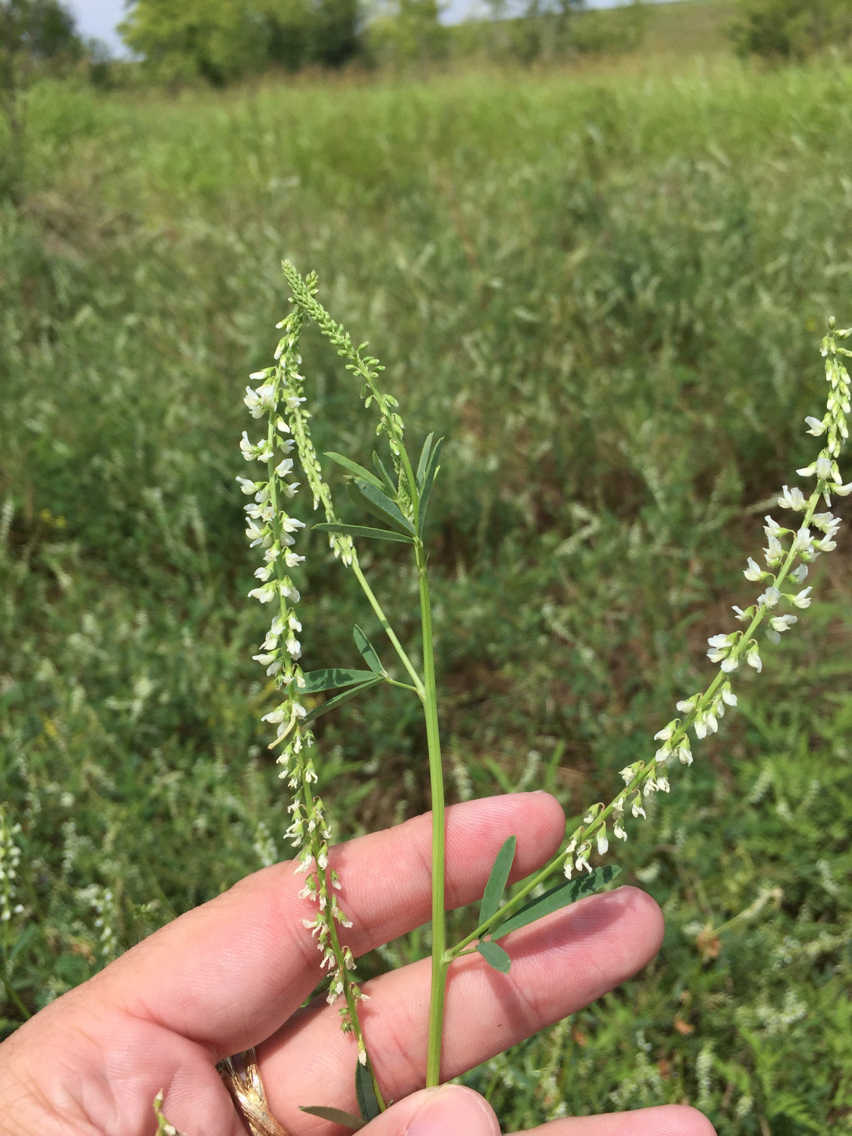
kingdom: Plantae
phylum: Tracheophyta
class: Magnoliopsida
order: Fabales
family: Fabaceae
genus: Melilotus
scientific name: Melilotus albus
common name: White melilot
